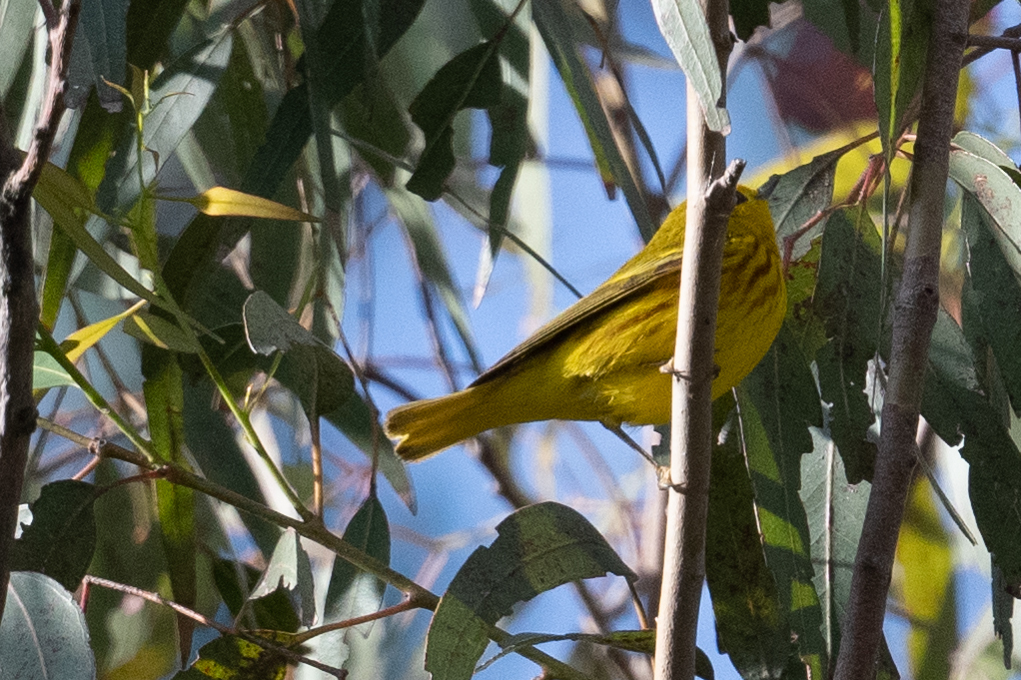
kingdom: Animalia
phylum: Chordata
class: Aves
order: Passeriformes
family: Parulidae
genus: Setophaga
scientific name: Setophaga petechia
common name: Yellow warbler
